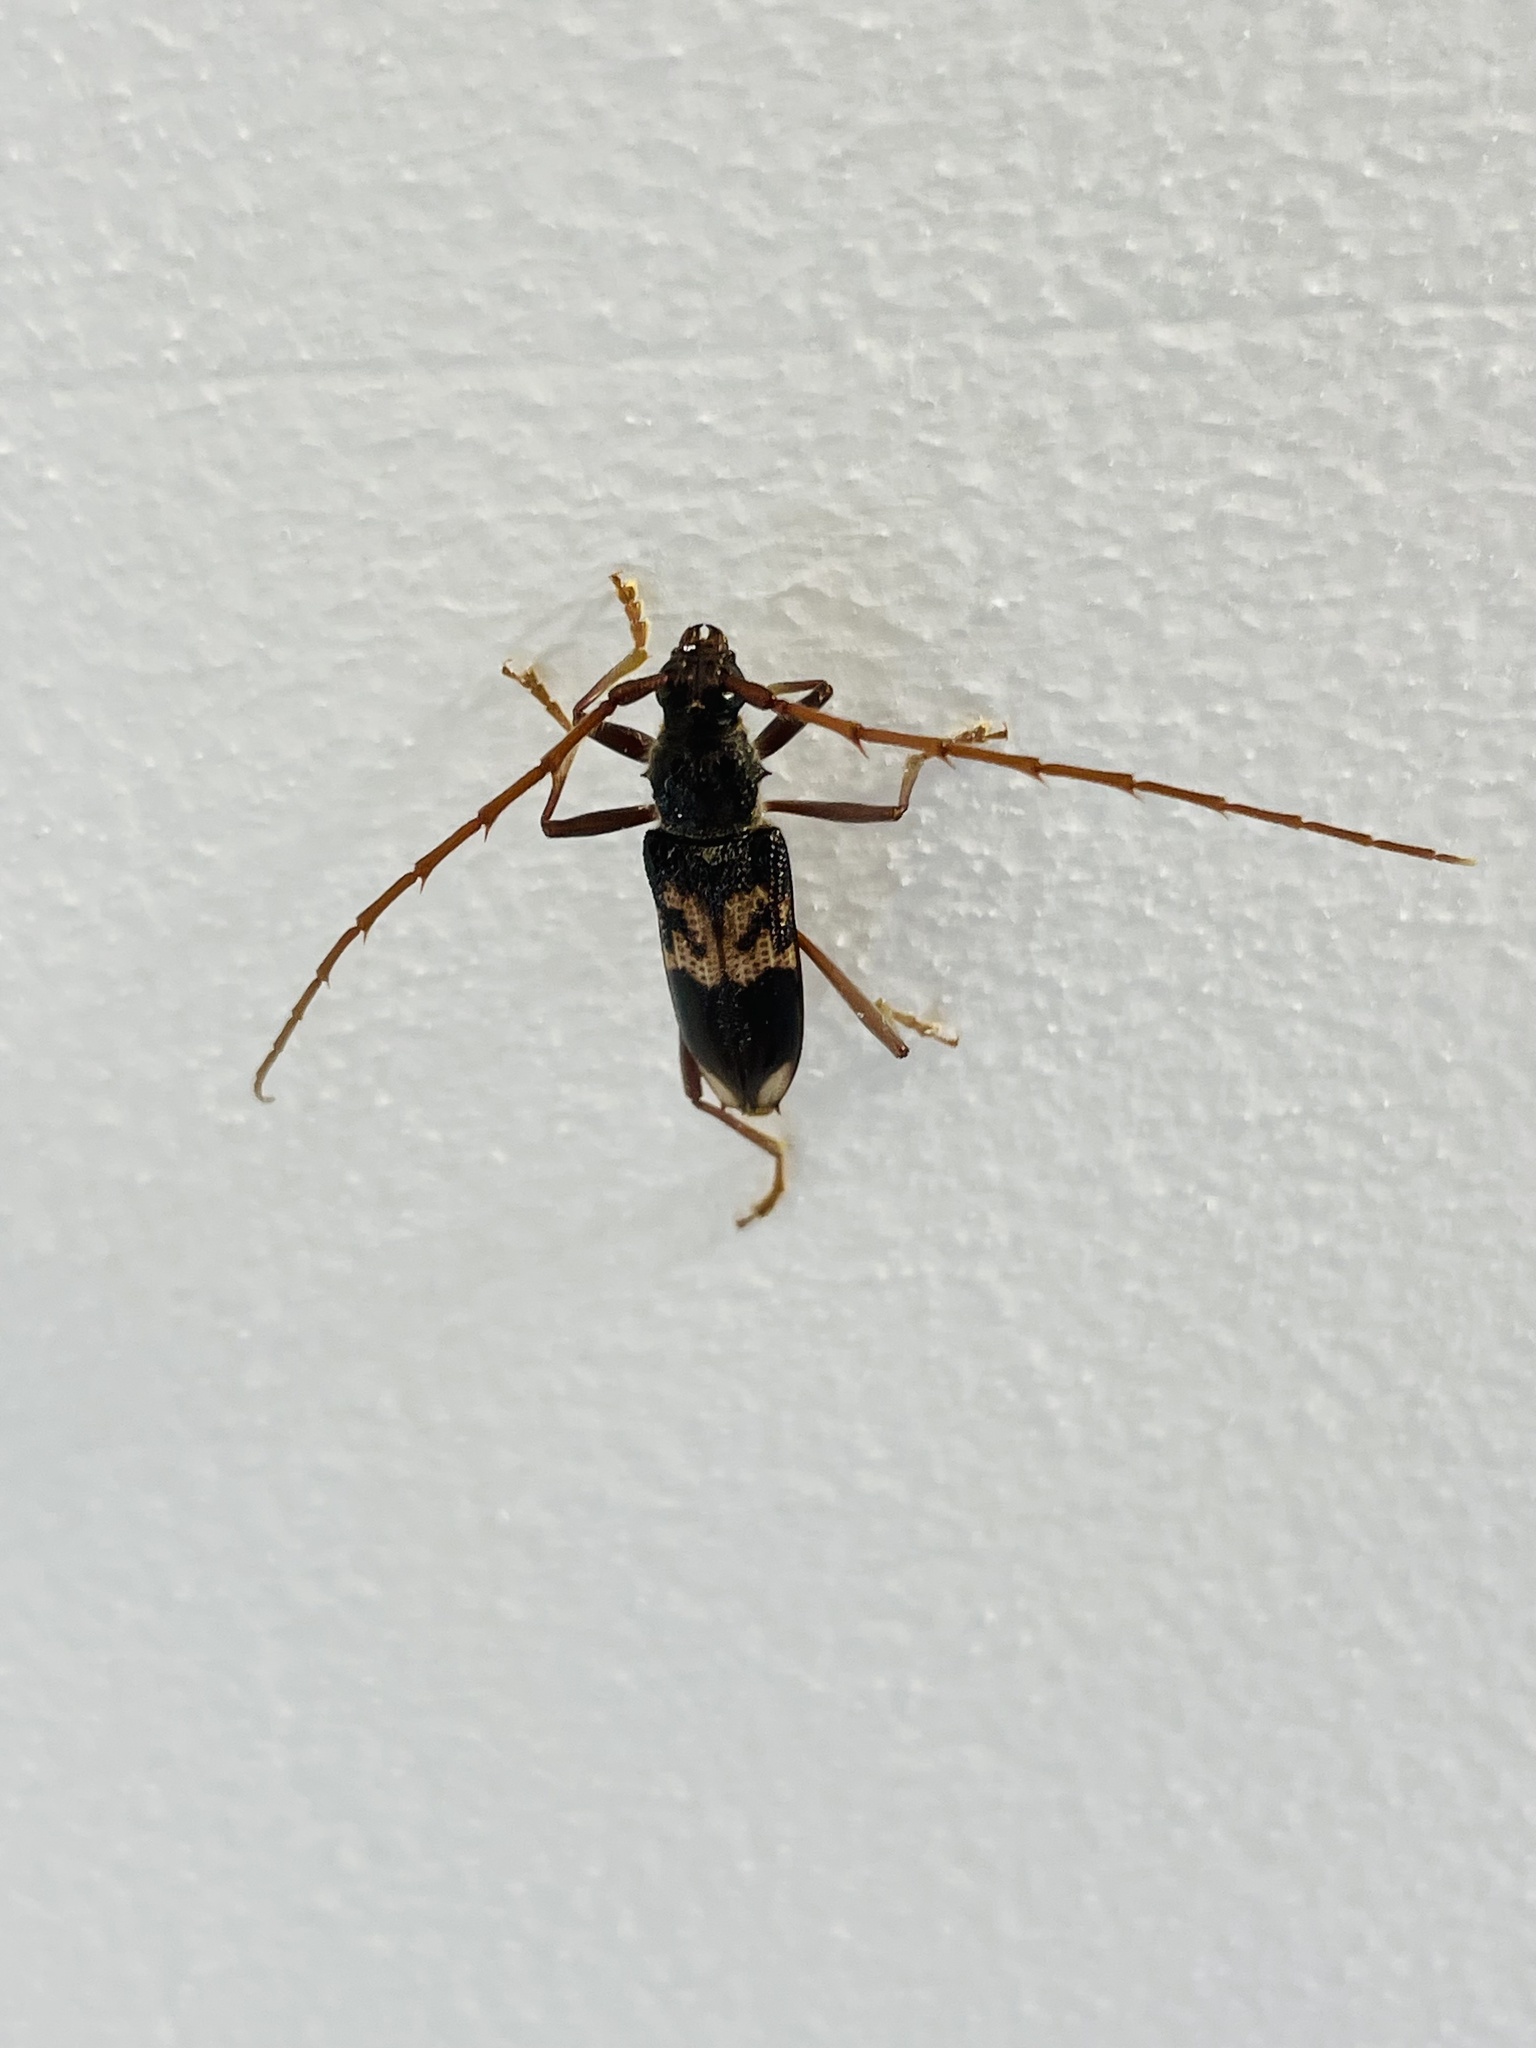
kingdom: Animalia
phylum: Arthropoda
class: Insecta
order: Coleoptera
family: Cerambycidae
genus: Phoracantha
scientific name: Phoracantha semipunctata
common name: Eucalyptus longhorn borer
